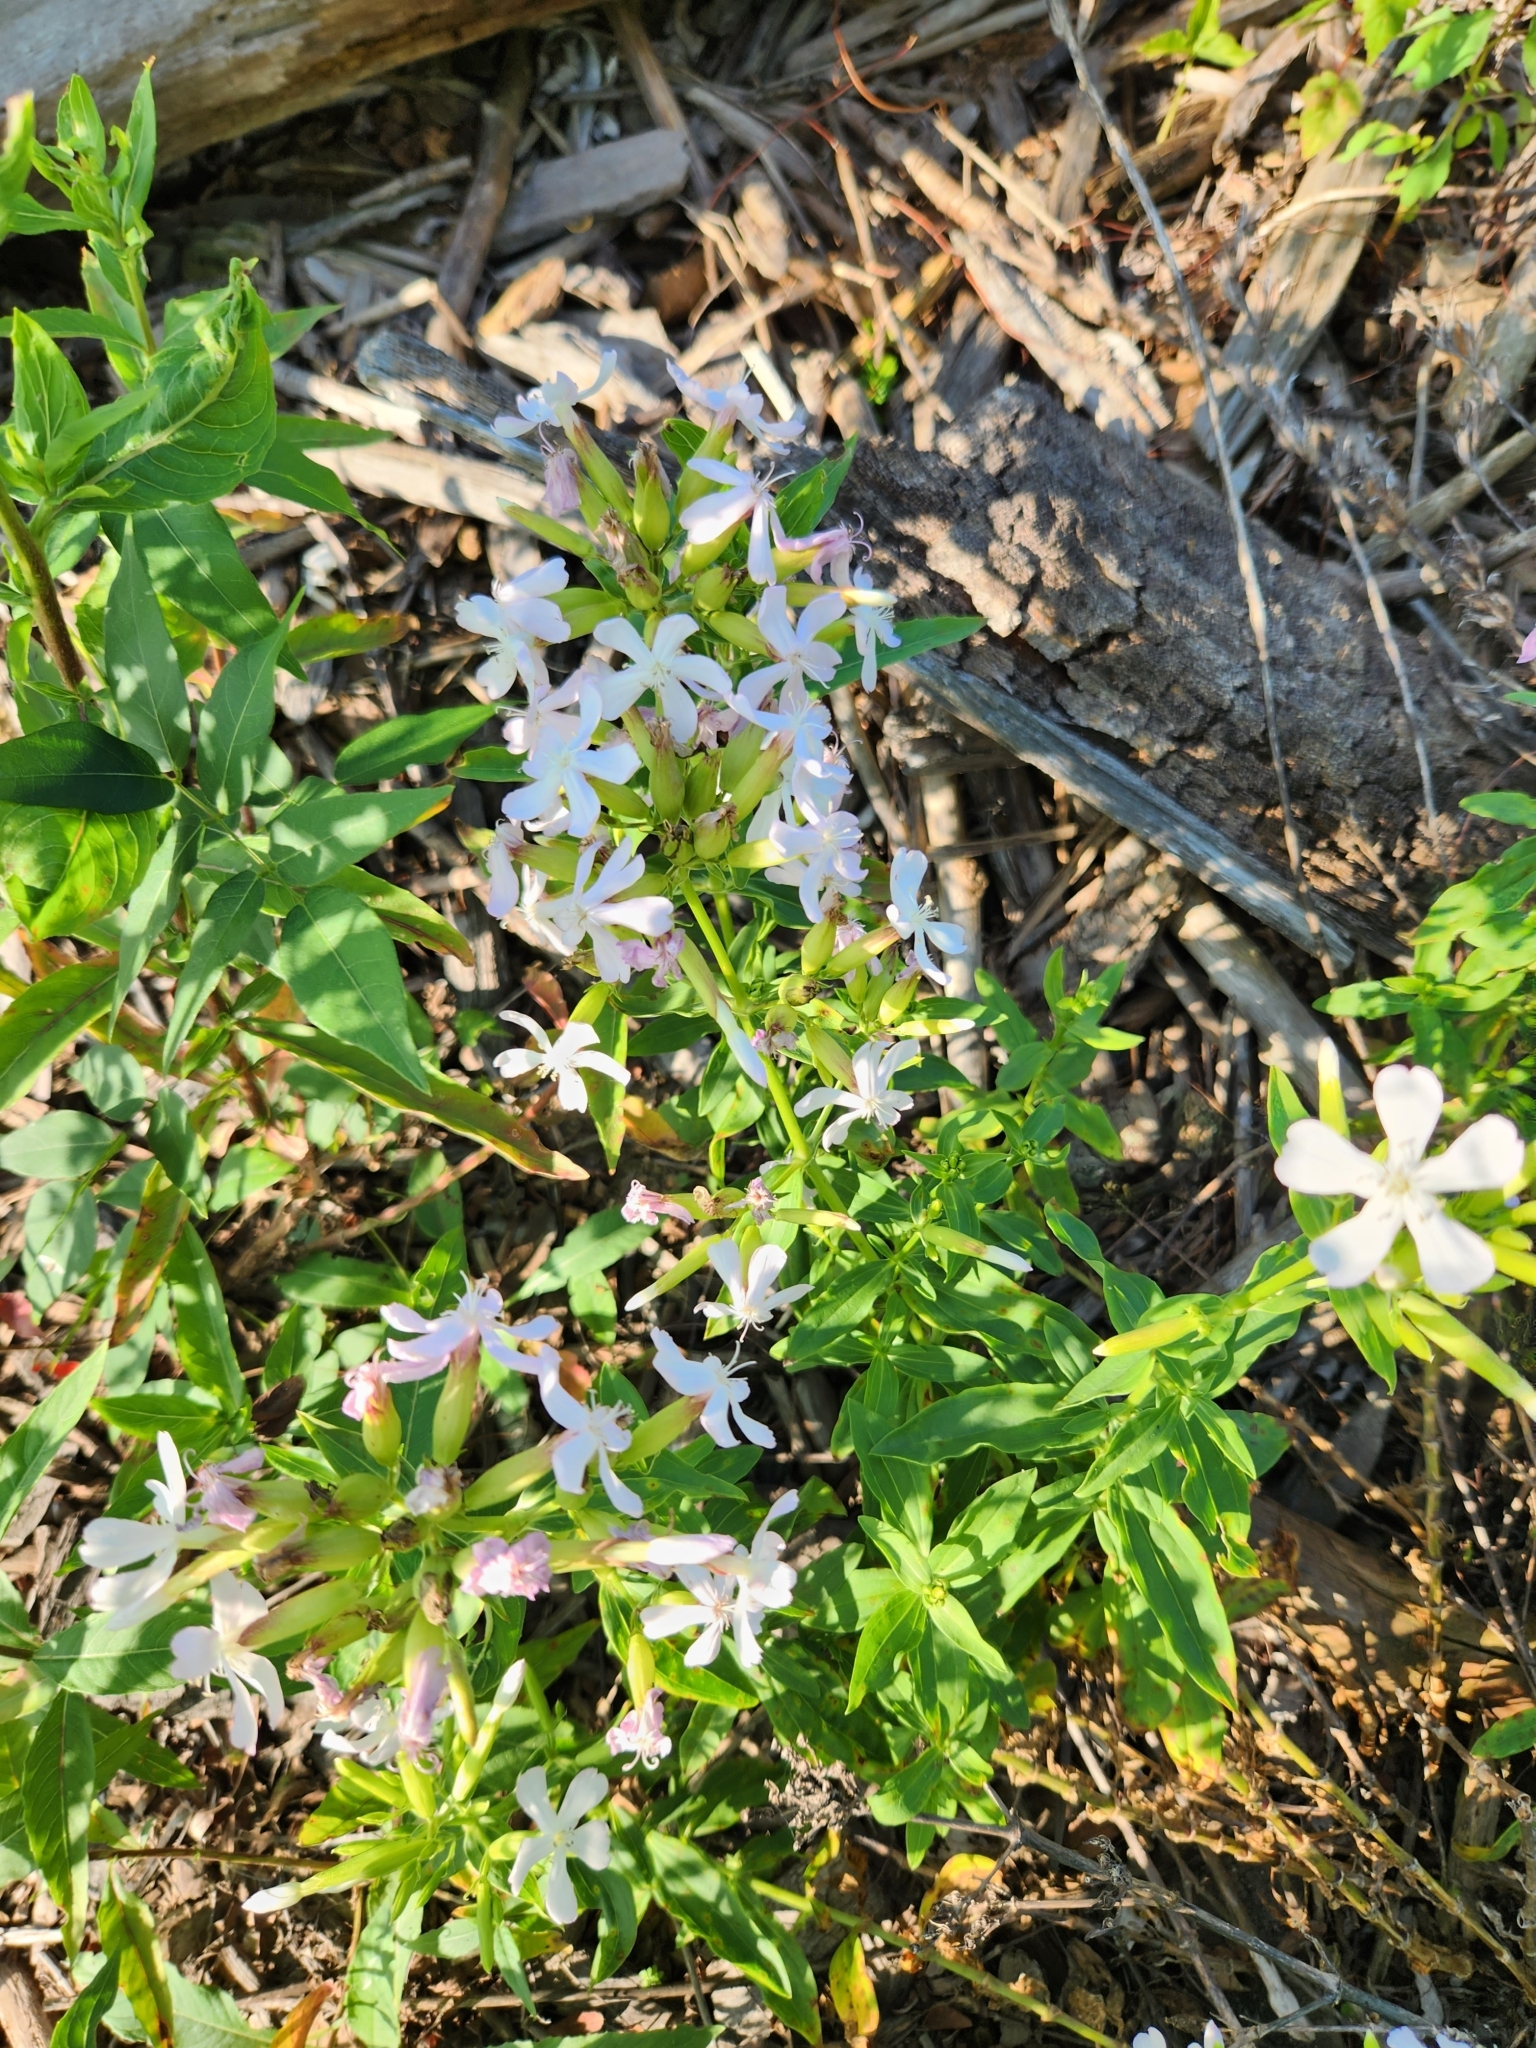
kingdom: Plantae
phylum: Tracheophyta
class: Magnoliopsida
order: Caryophyllales
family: Caryophyllaceae
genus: Saponaria
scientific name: Saponaria officinalis
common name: Soapwort
